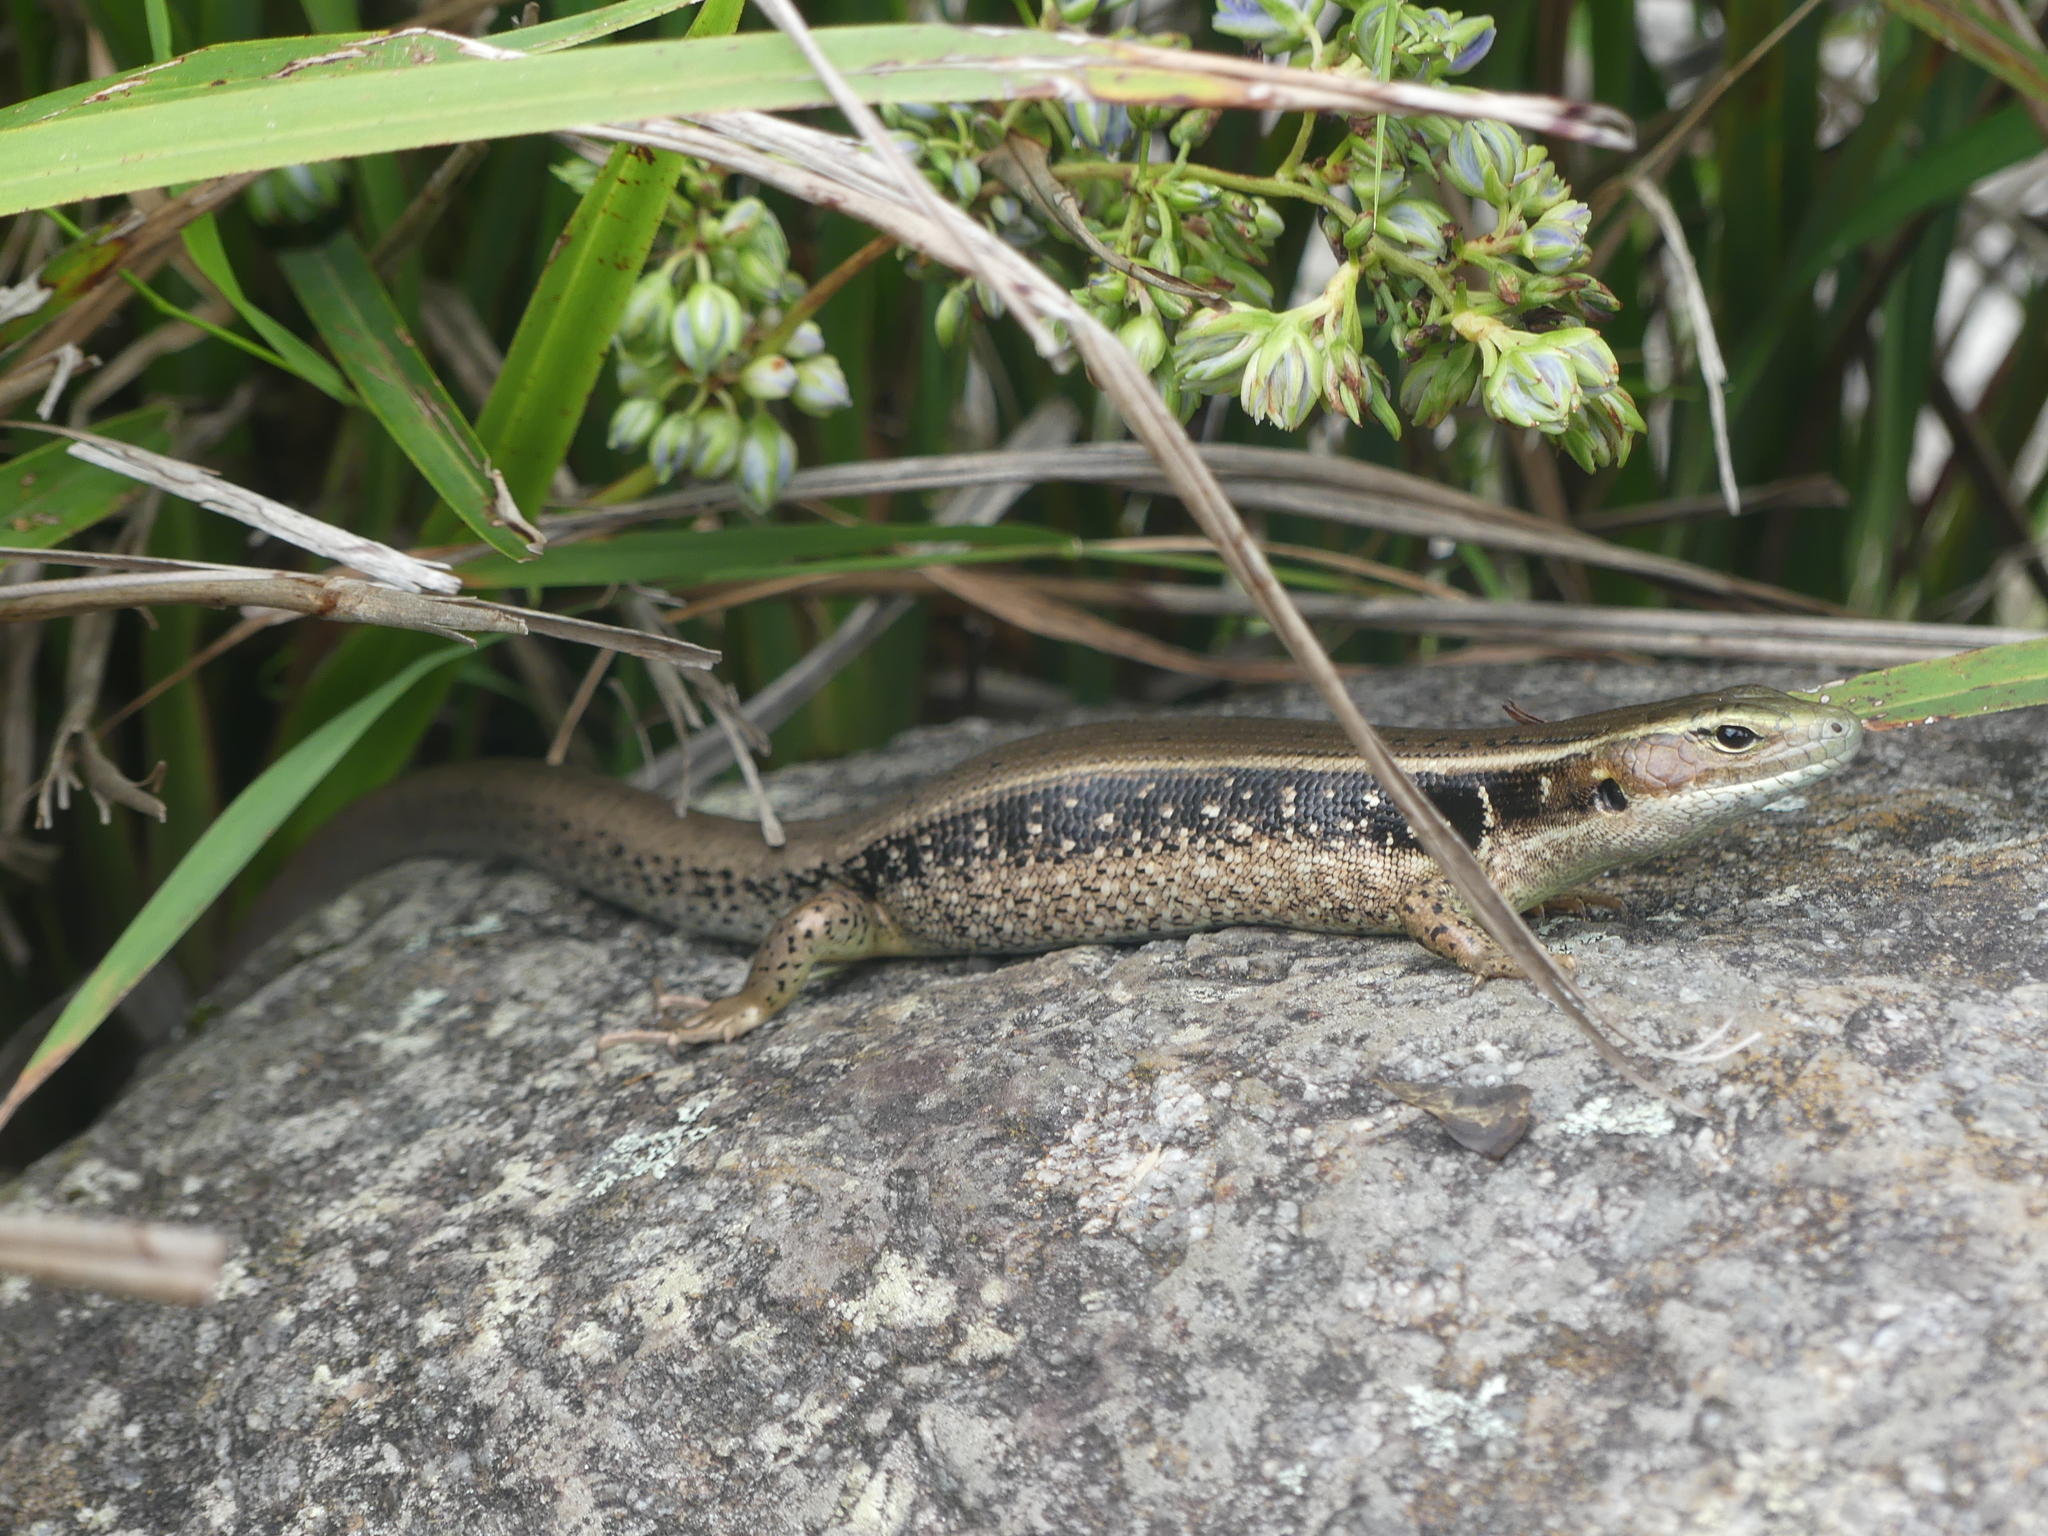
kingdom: Animalia
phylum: Chordata
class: Squamata
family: Scincidae
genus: Eulamprus
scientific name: Eulamprus quoyii
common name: Eastern water skink
